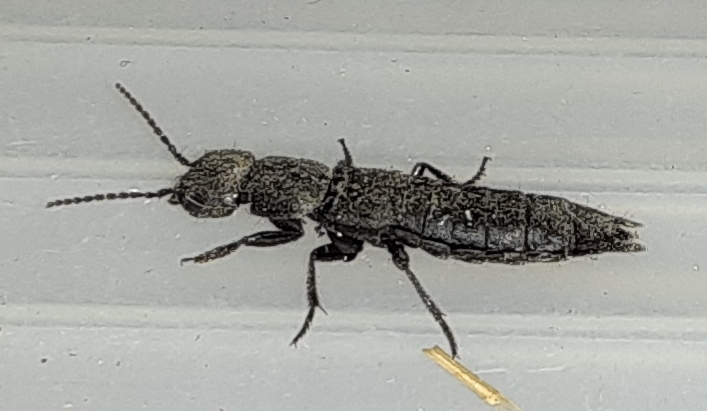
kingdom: Animalia
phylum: Arthropoda
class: Insecta
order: Coleoptera
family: Staphylinidae
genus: Ocypus
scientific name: Ocypus nitens
